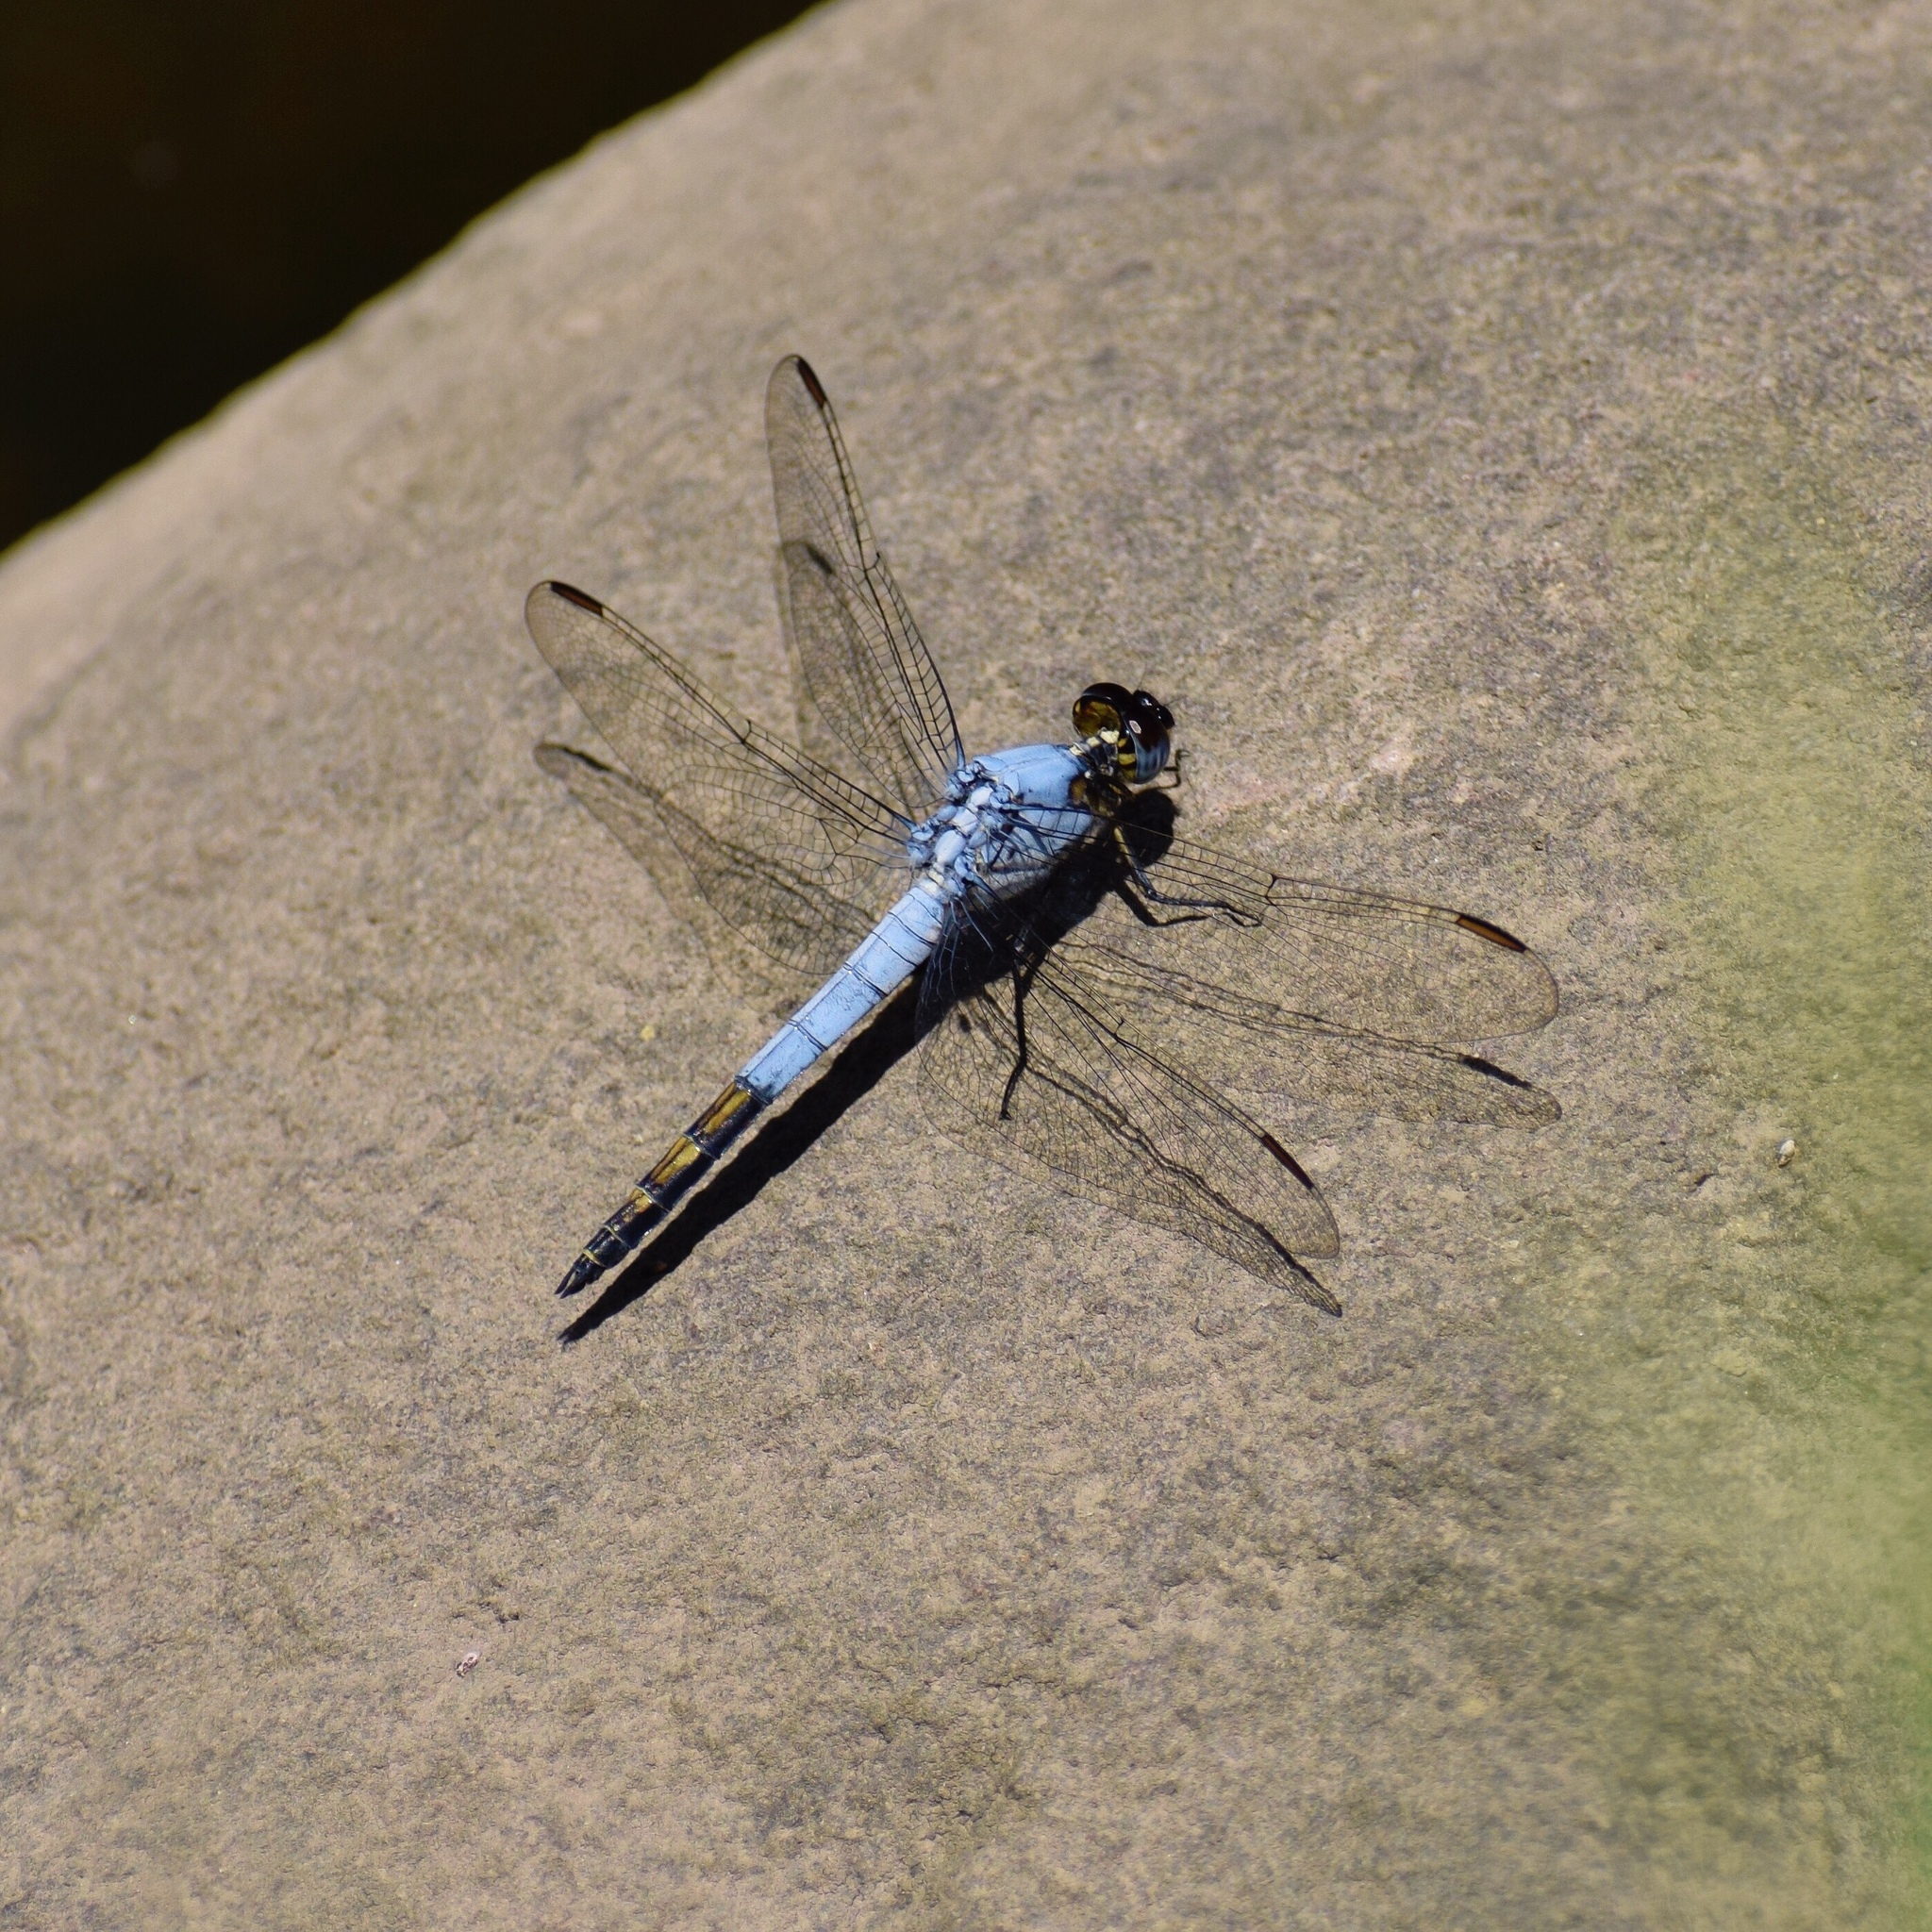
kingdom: Animalia
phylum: Arthropoda
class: Insecta
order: Odonata
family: Libellulidae
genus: Nesciothemis
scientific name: Nesciothemis farinosa
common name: Eastern blacktail
